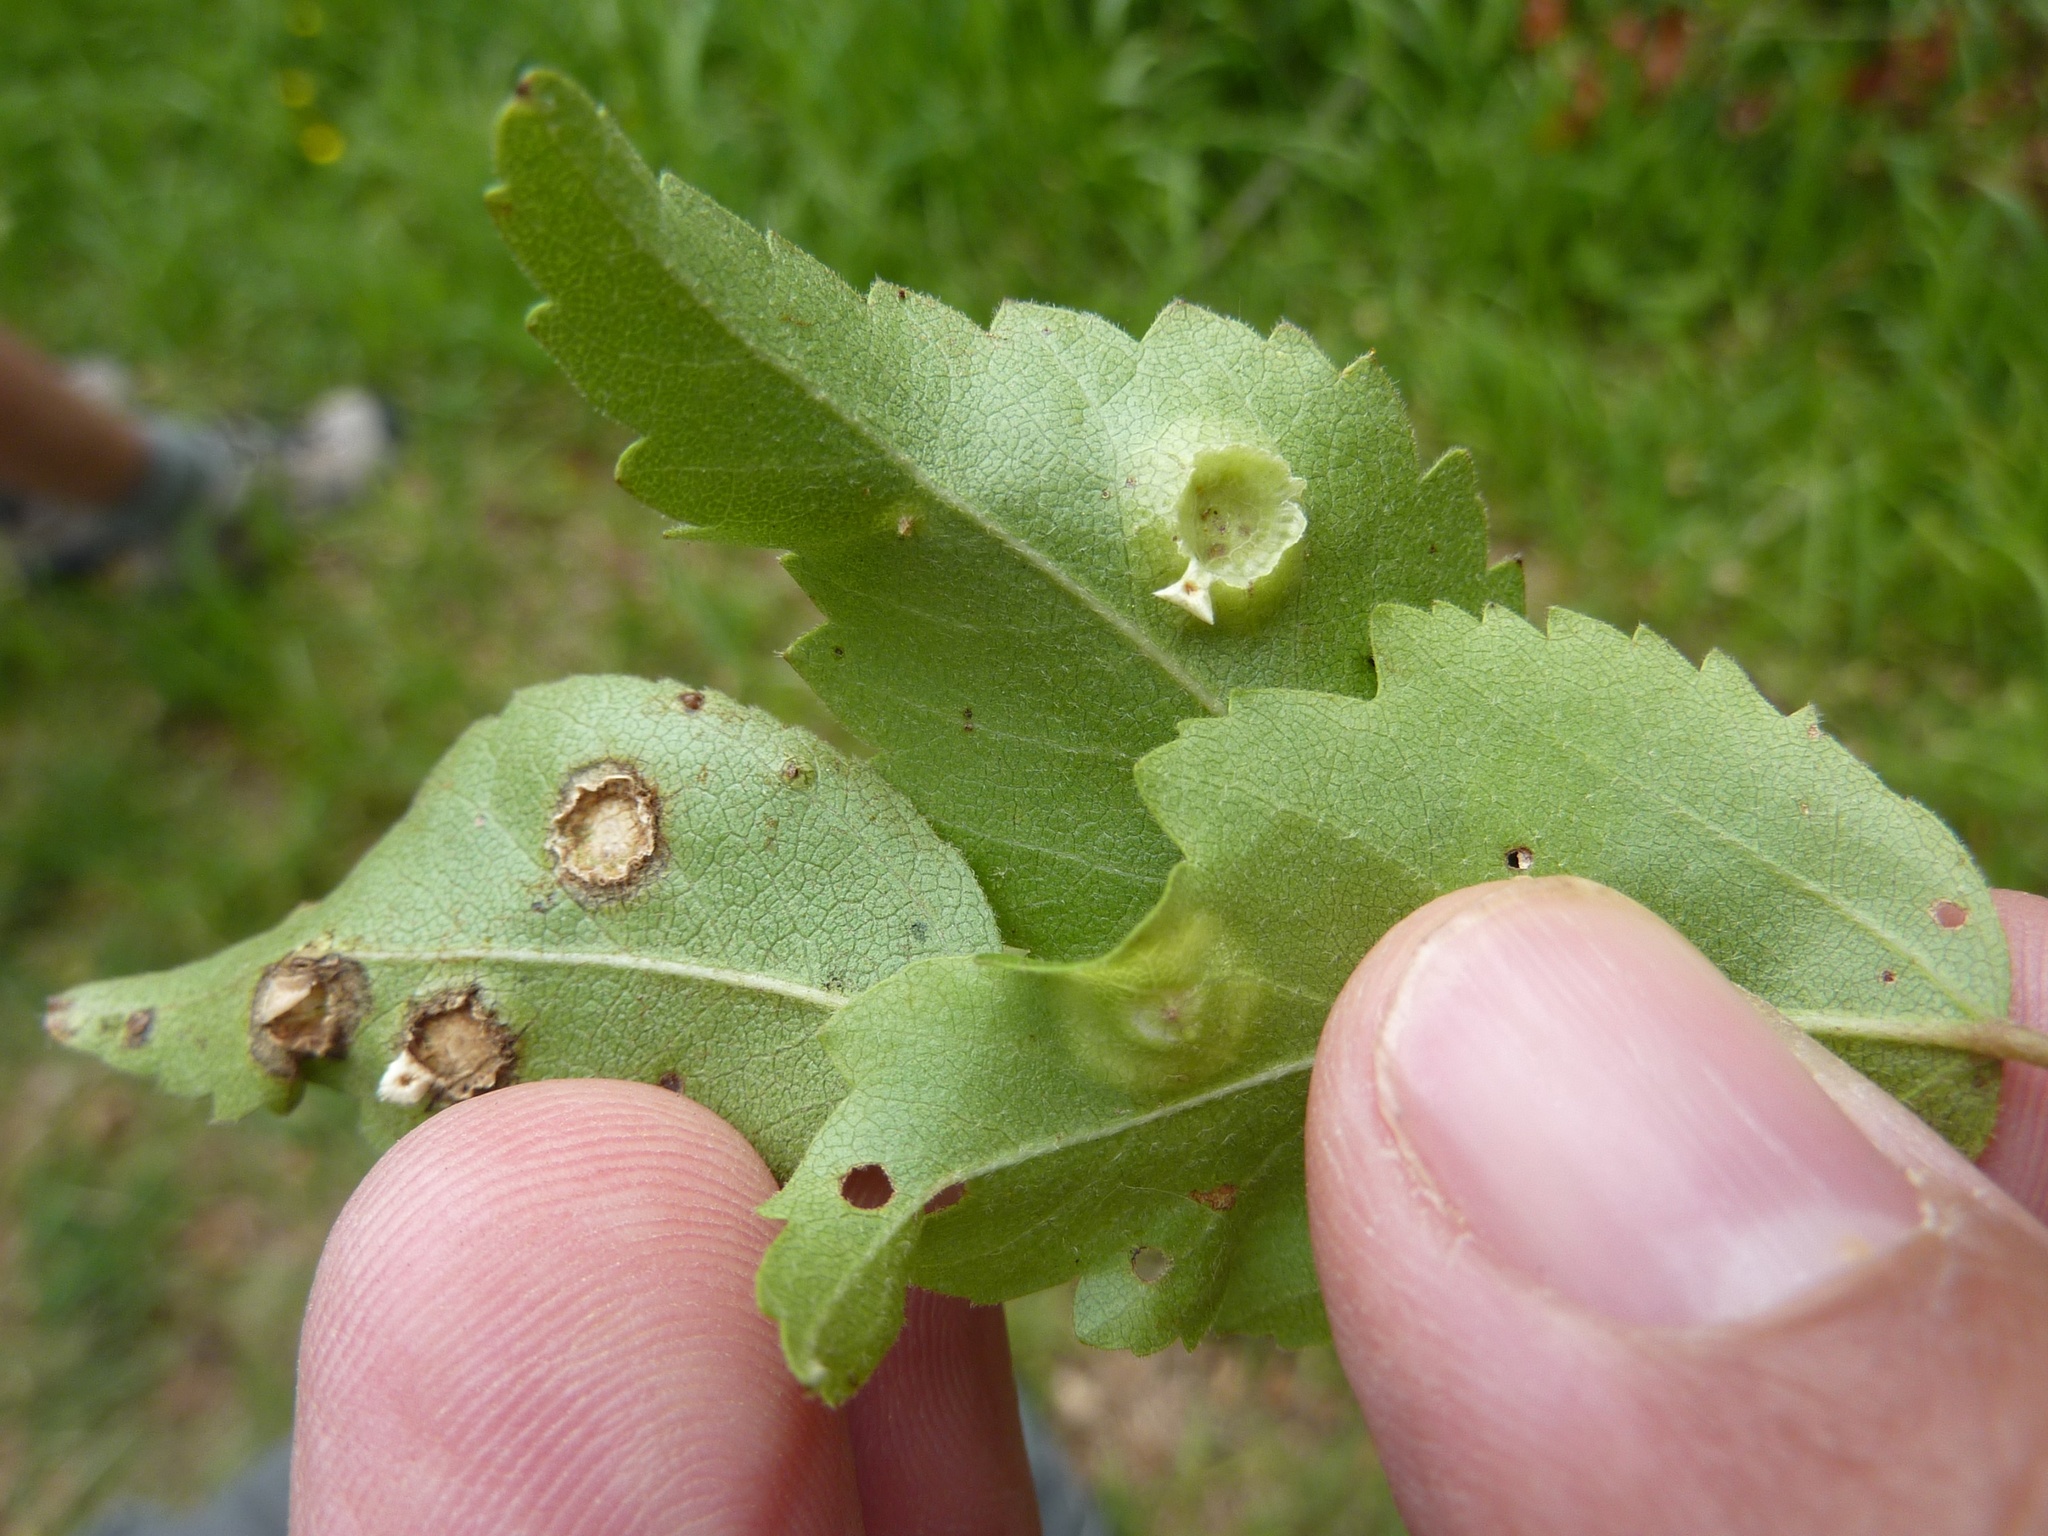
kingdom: Plantae
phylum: Tracheophyta
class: Magnoliopsida
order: Malvales
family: Malvaceae
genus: Plagianthus
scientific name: Plagianthus regius
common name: Manatu
